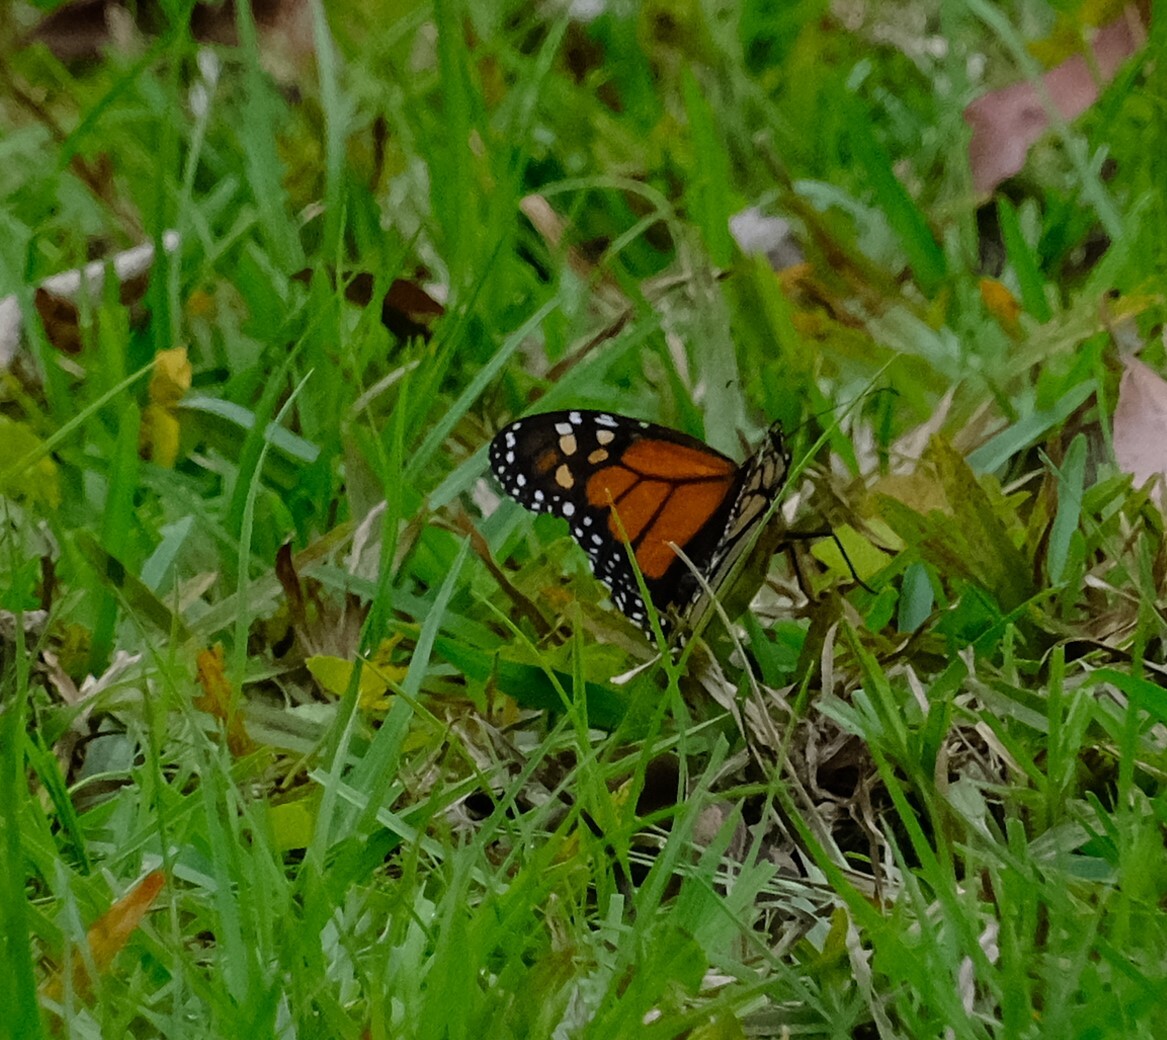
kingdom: Animalia
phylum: Arthropoda
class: Insecta
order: Lepidoptera
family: Nymphalidae
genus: Danaus
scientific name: Danaus plexippus
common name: Monarch
